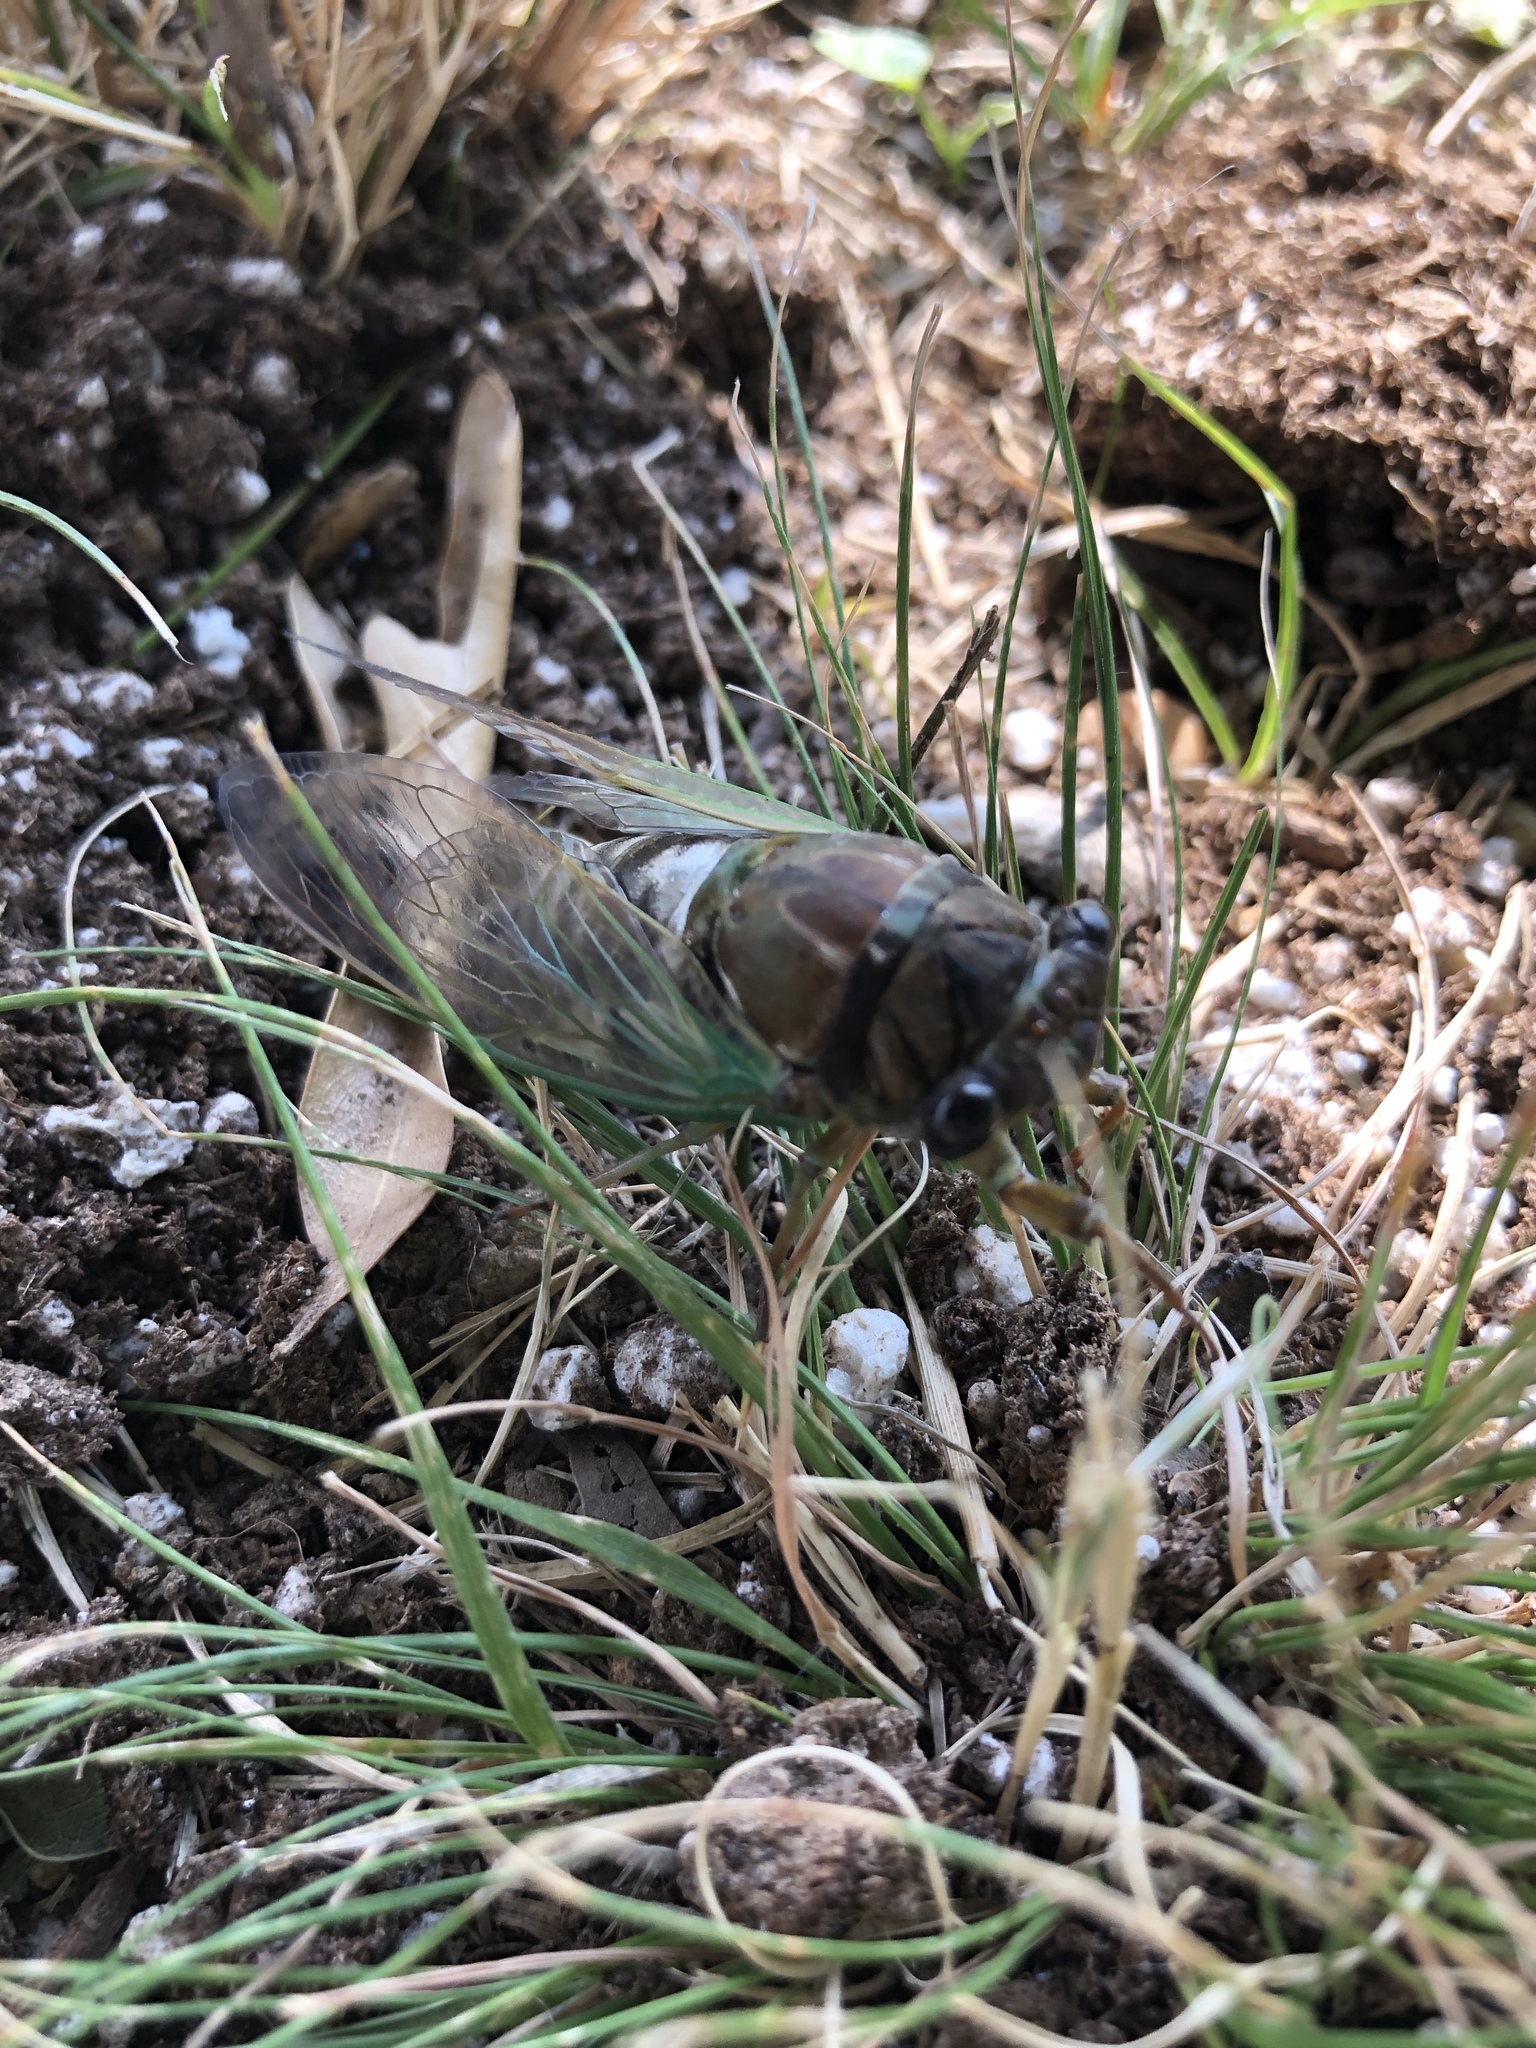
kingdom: Animalia
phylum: Arthropoda
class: Insecta
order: Hemiptera
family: Cicadidae
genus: Neotibicen
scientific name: Neotibicen lyricen
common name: Lyric cicada
